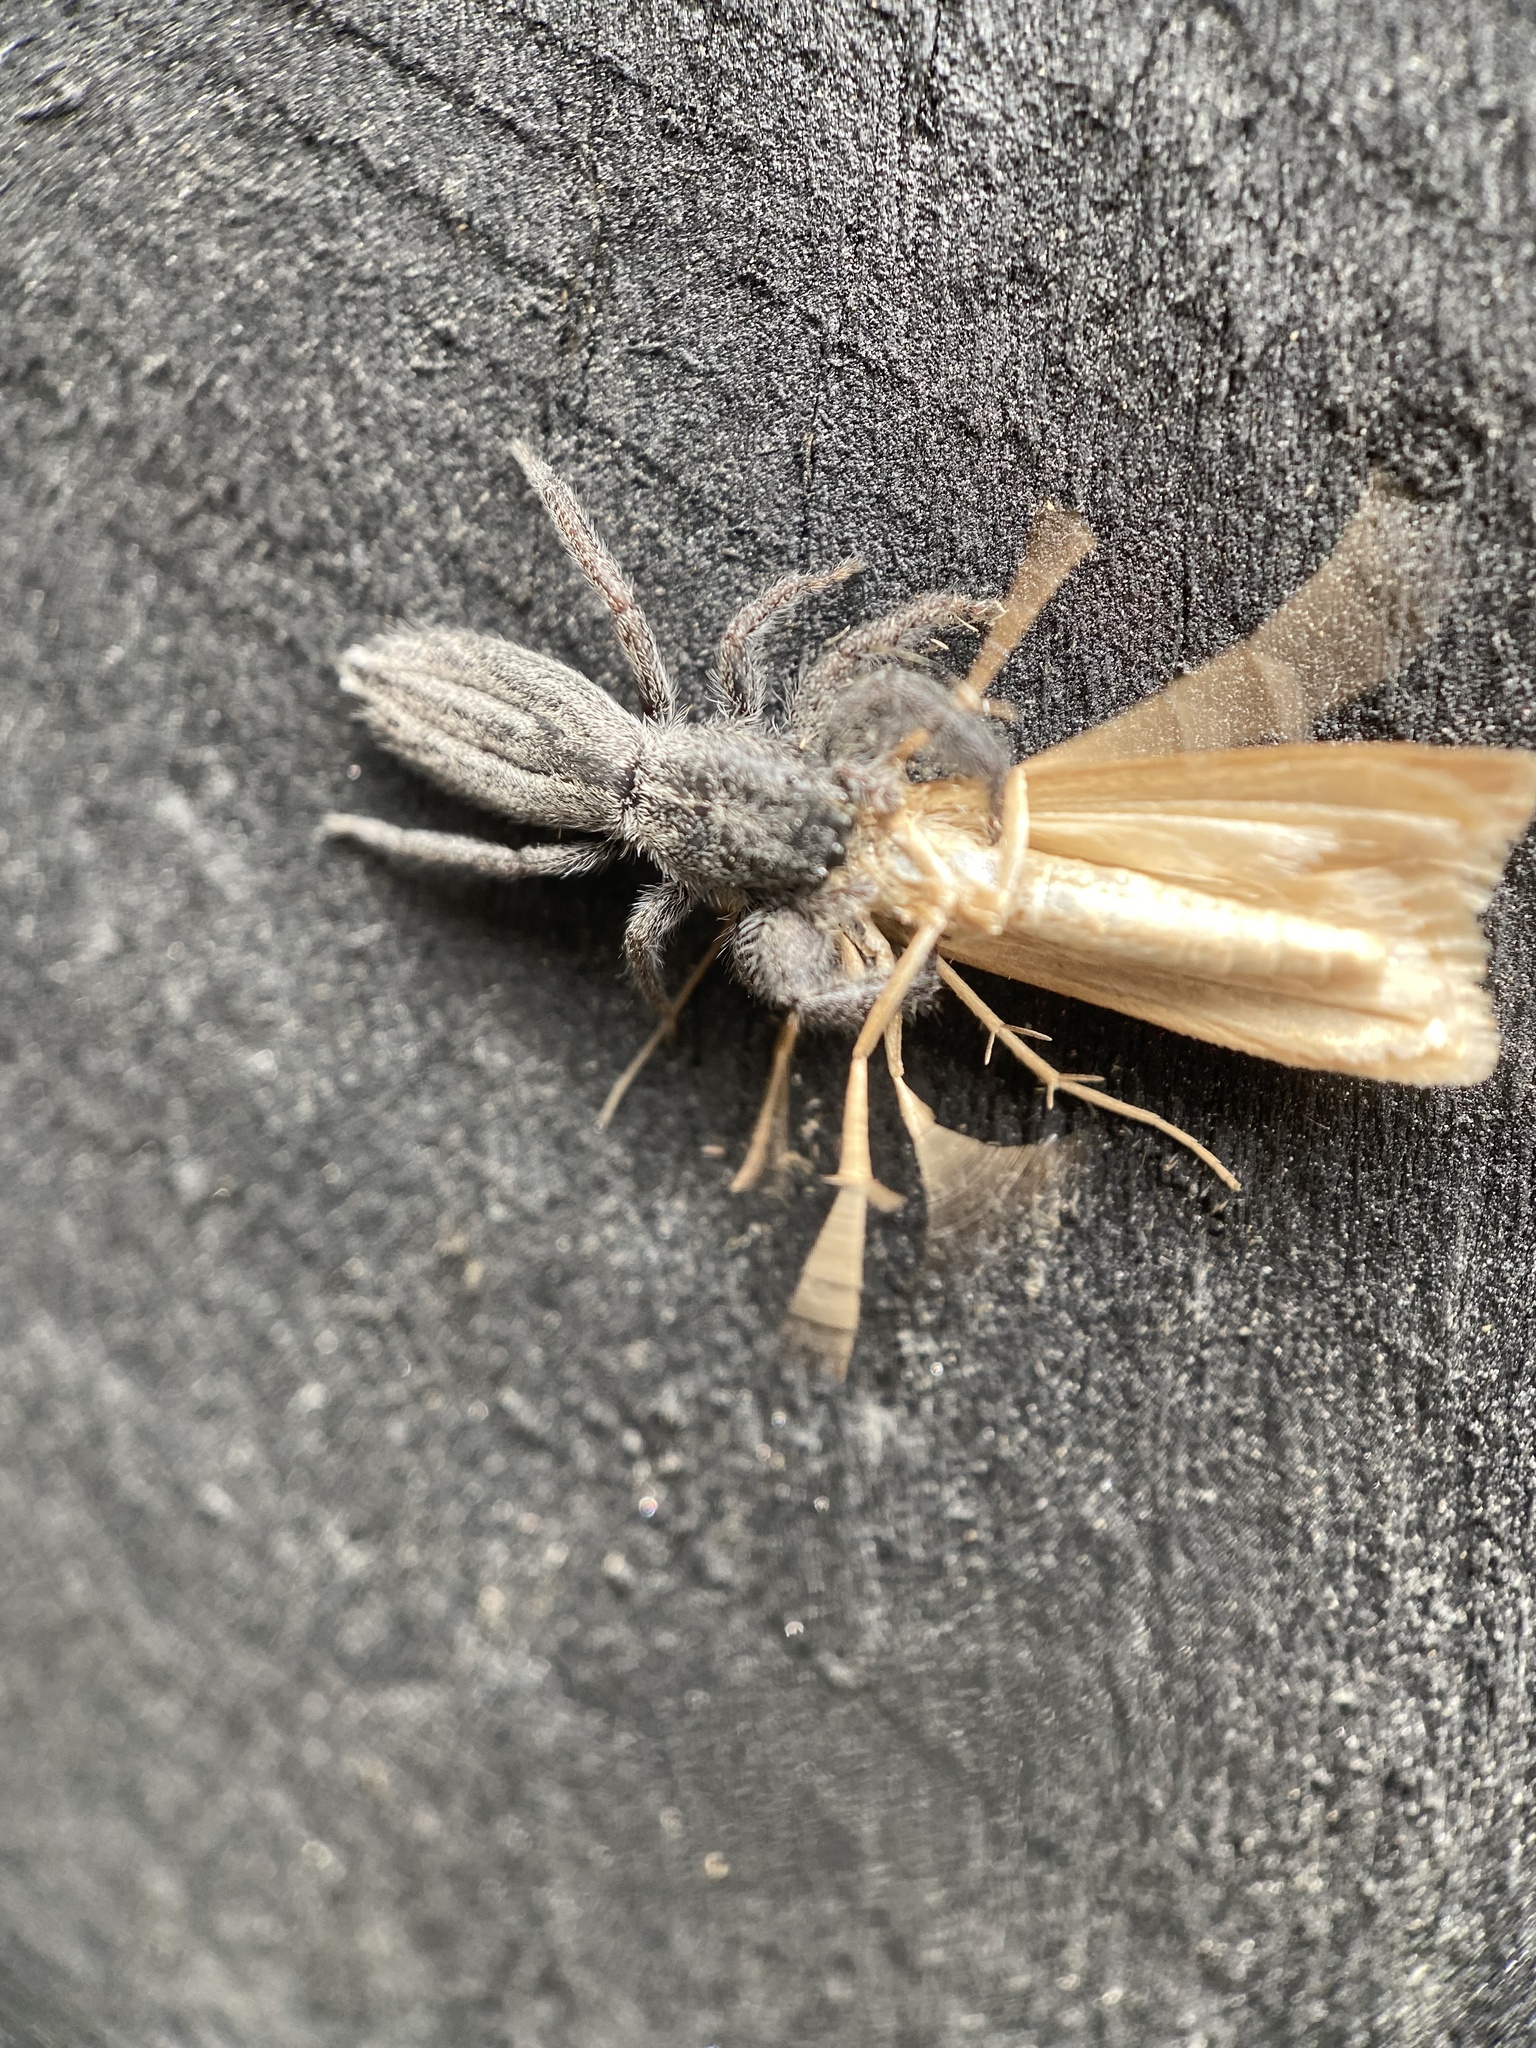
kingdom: Animalia
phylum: Arthropoda
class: Arachnida
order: Araneae
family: Salticidae
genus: Holoplatys
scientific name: Holoplatys apressus
